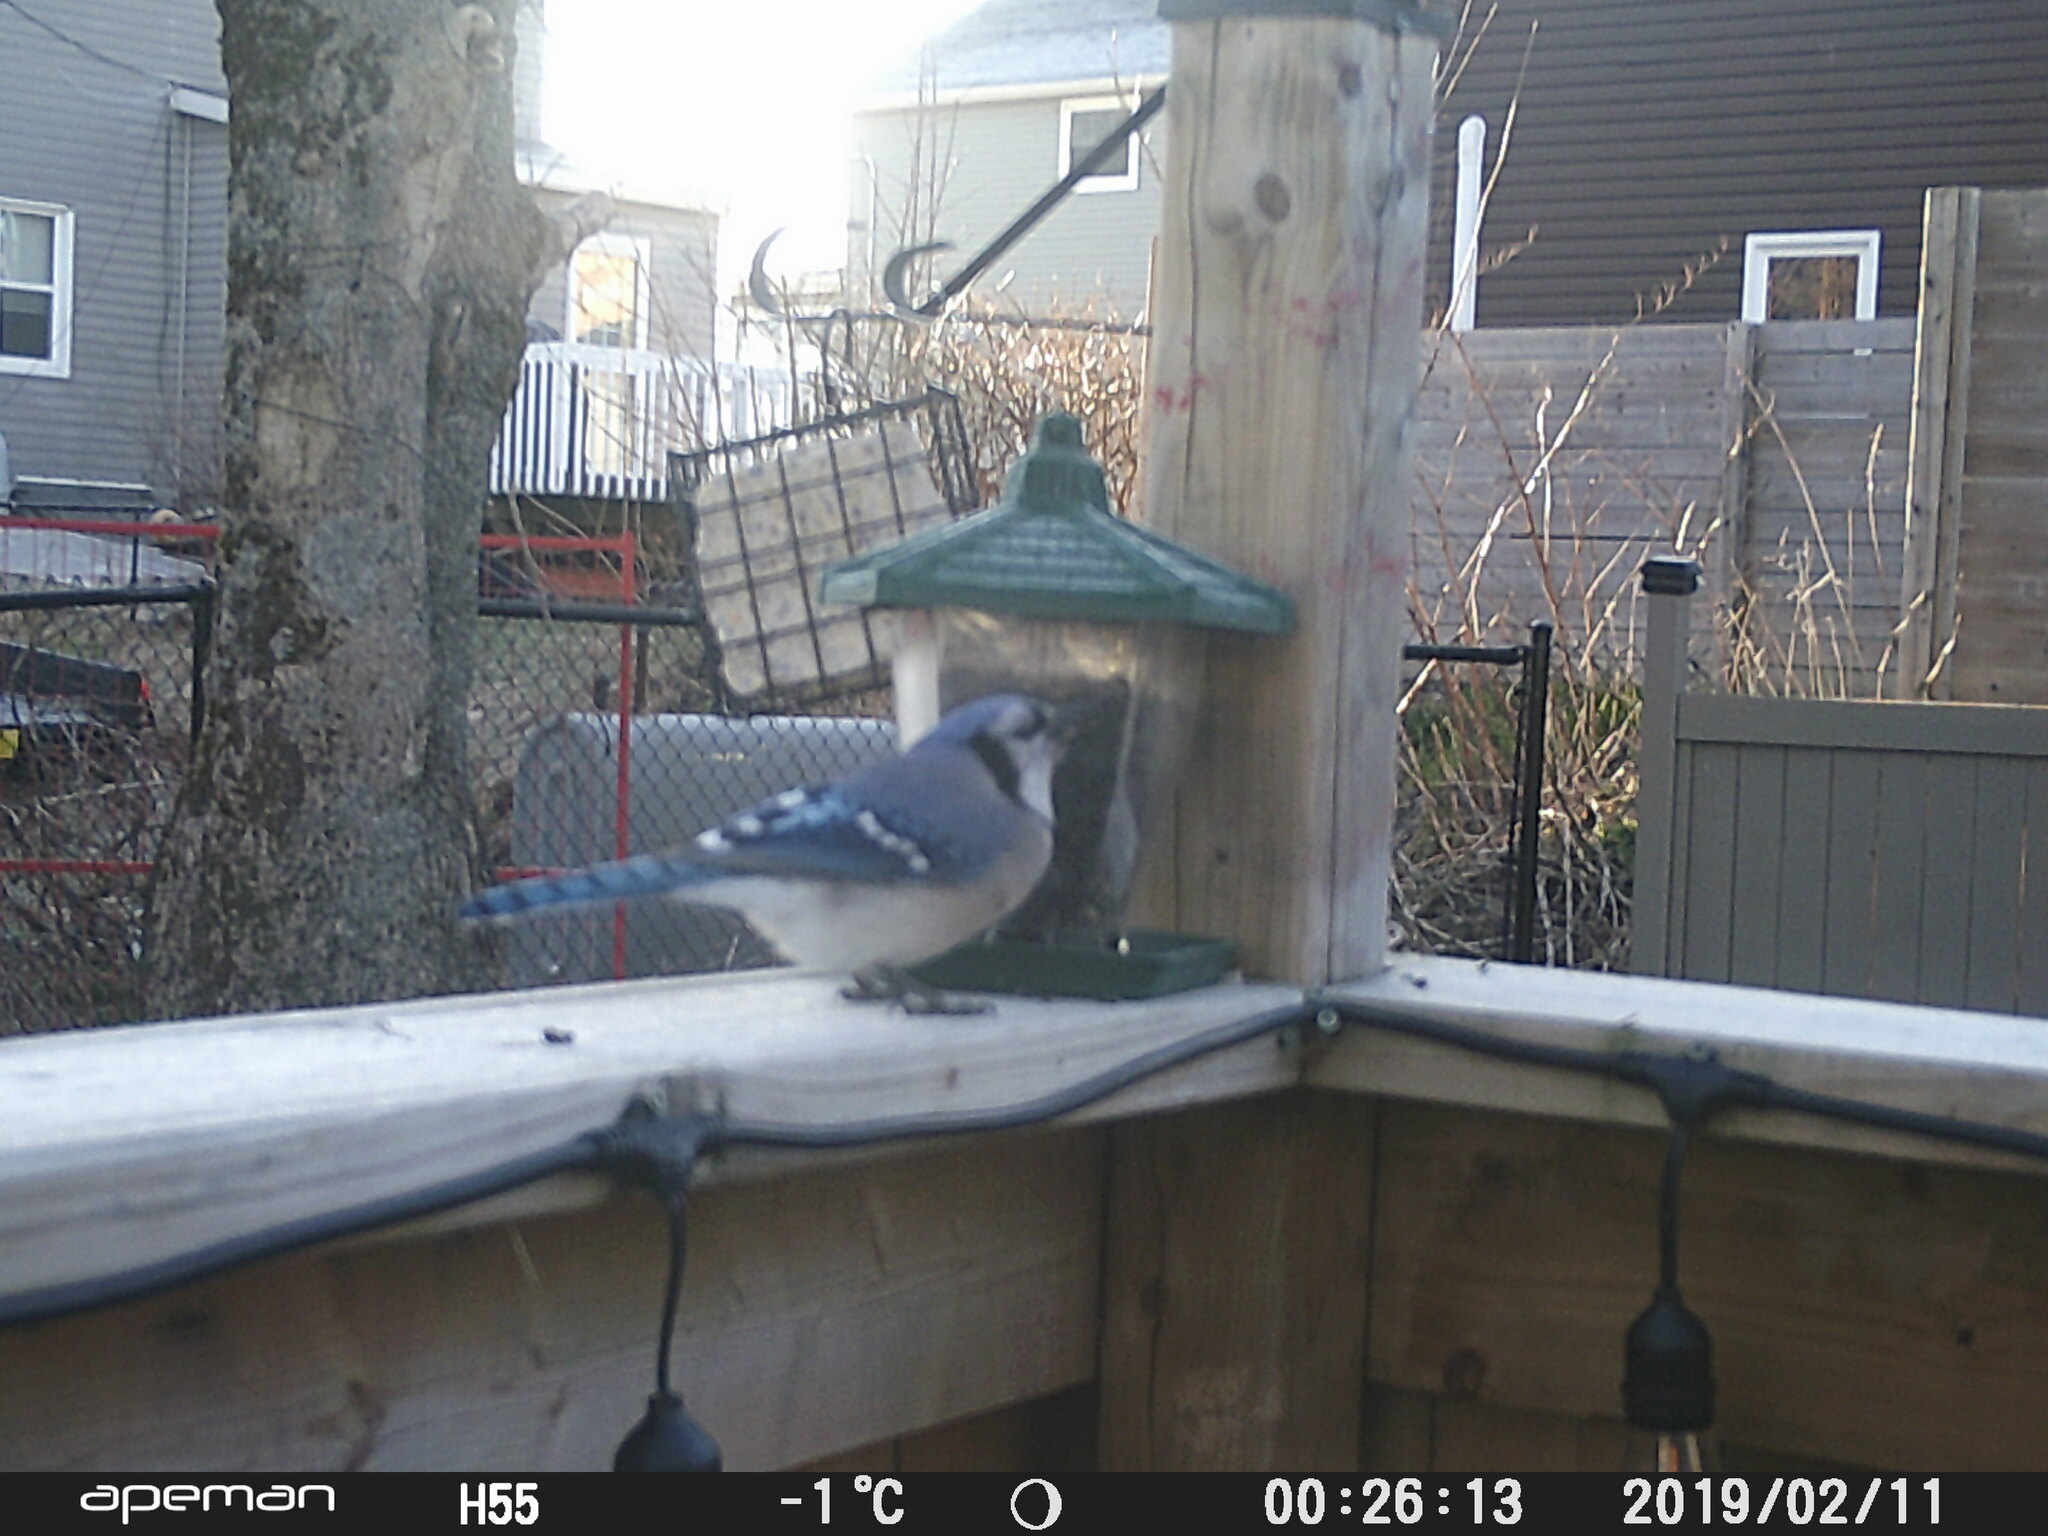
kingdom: Animalia
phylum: Chordata
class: Aves
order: Passeriformes
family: Corvidae
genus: Cyanocitta
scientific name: Cyanocitta cristata
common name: Blue jay
